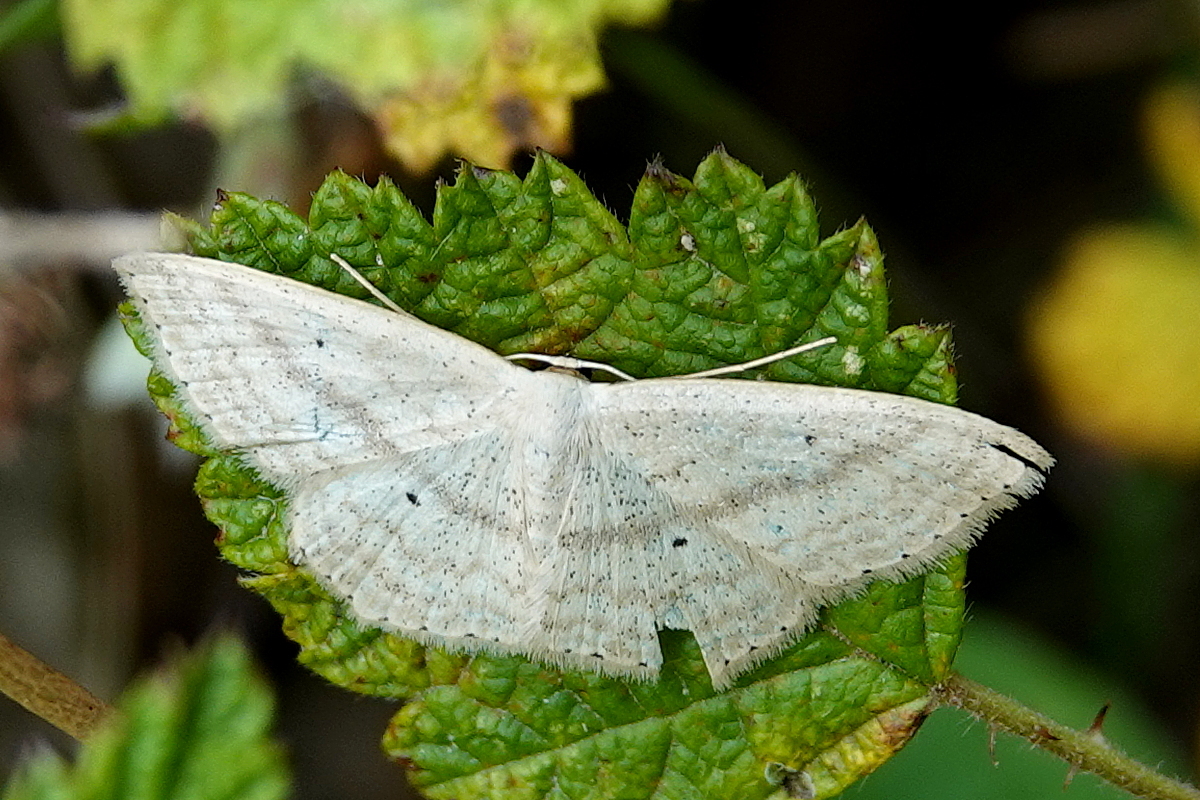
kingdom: Animalia
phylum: Arthropoda
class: Insecta
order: Lepidoptera
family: Geometridae
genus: Scopula
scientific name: Scopula perlata
